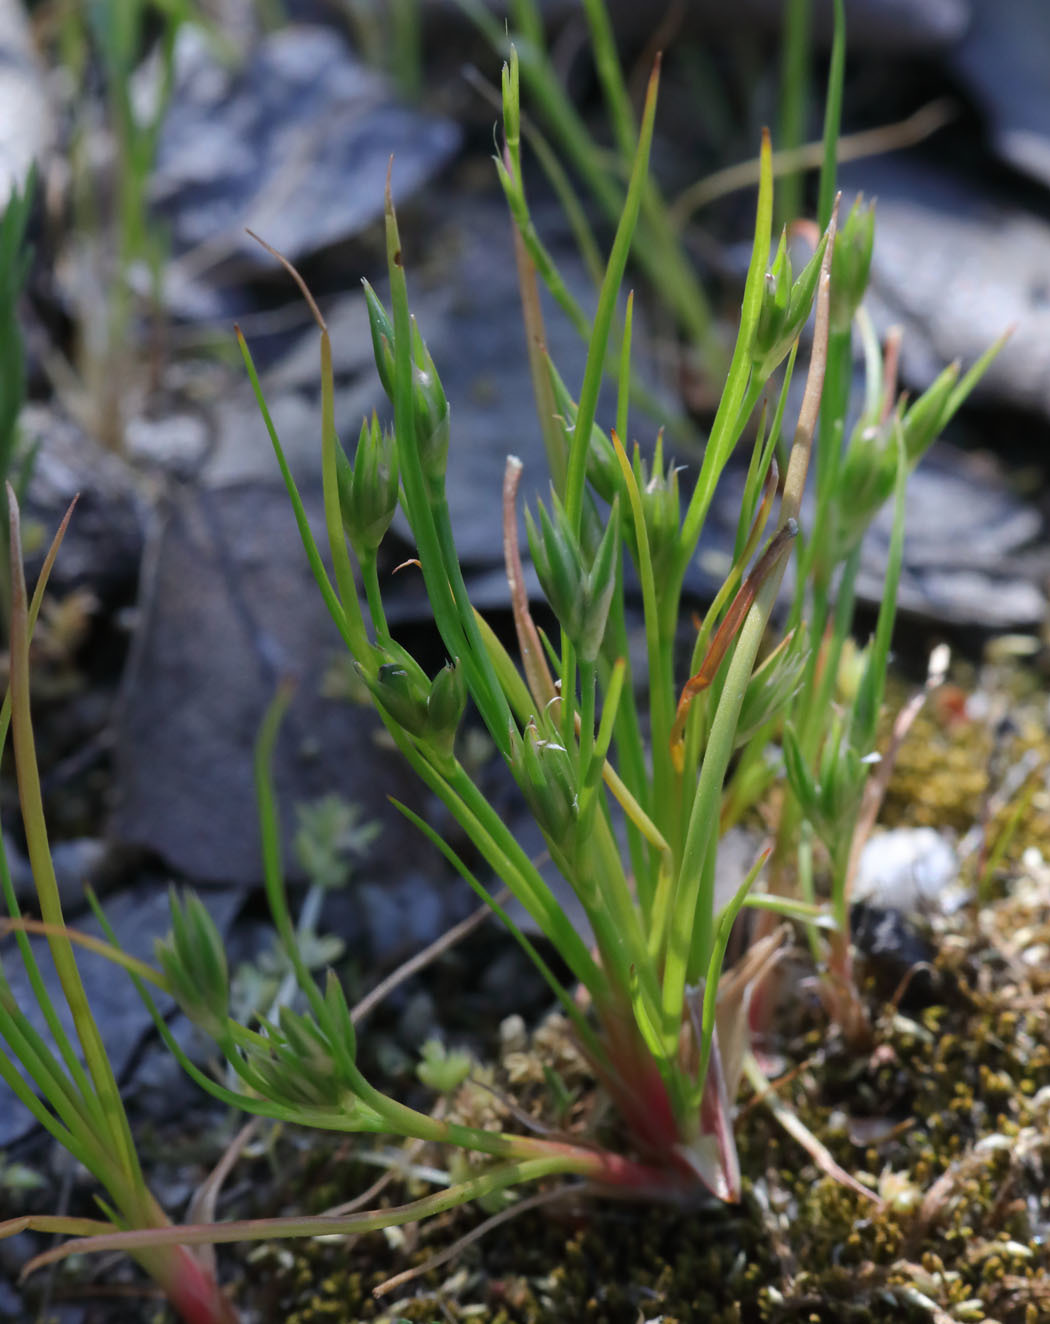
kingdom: Plantae
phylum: Tracheophyta
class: Liliopsida
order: Poales
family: Juncaceae
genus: Juncus
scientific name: Juncus bufonius
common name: Toad rush
